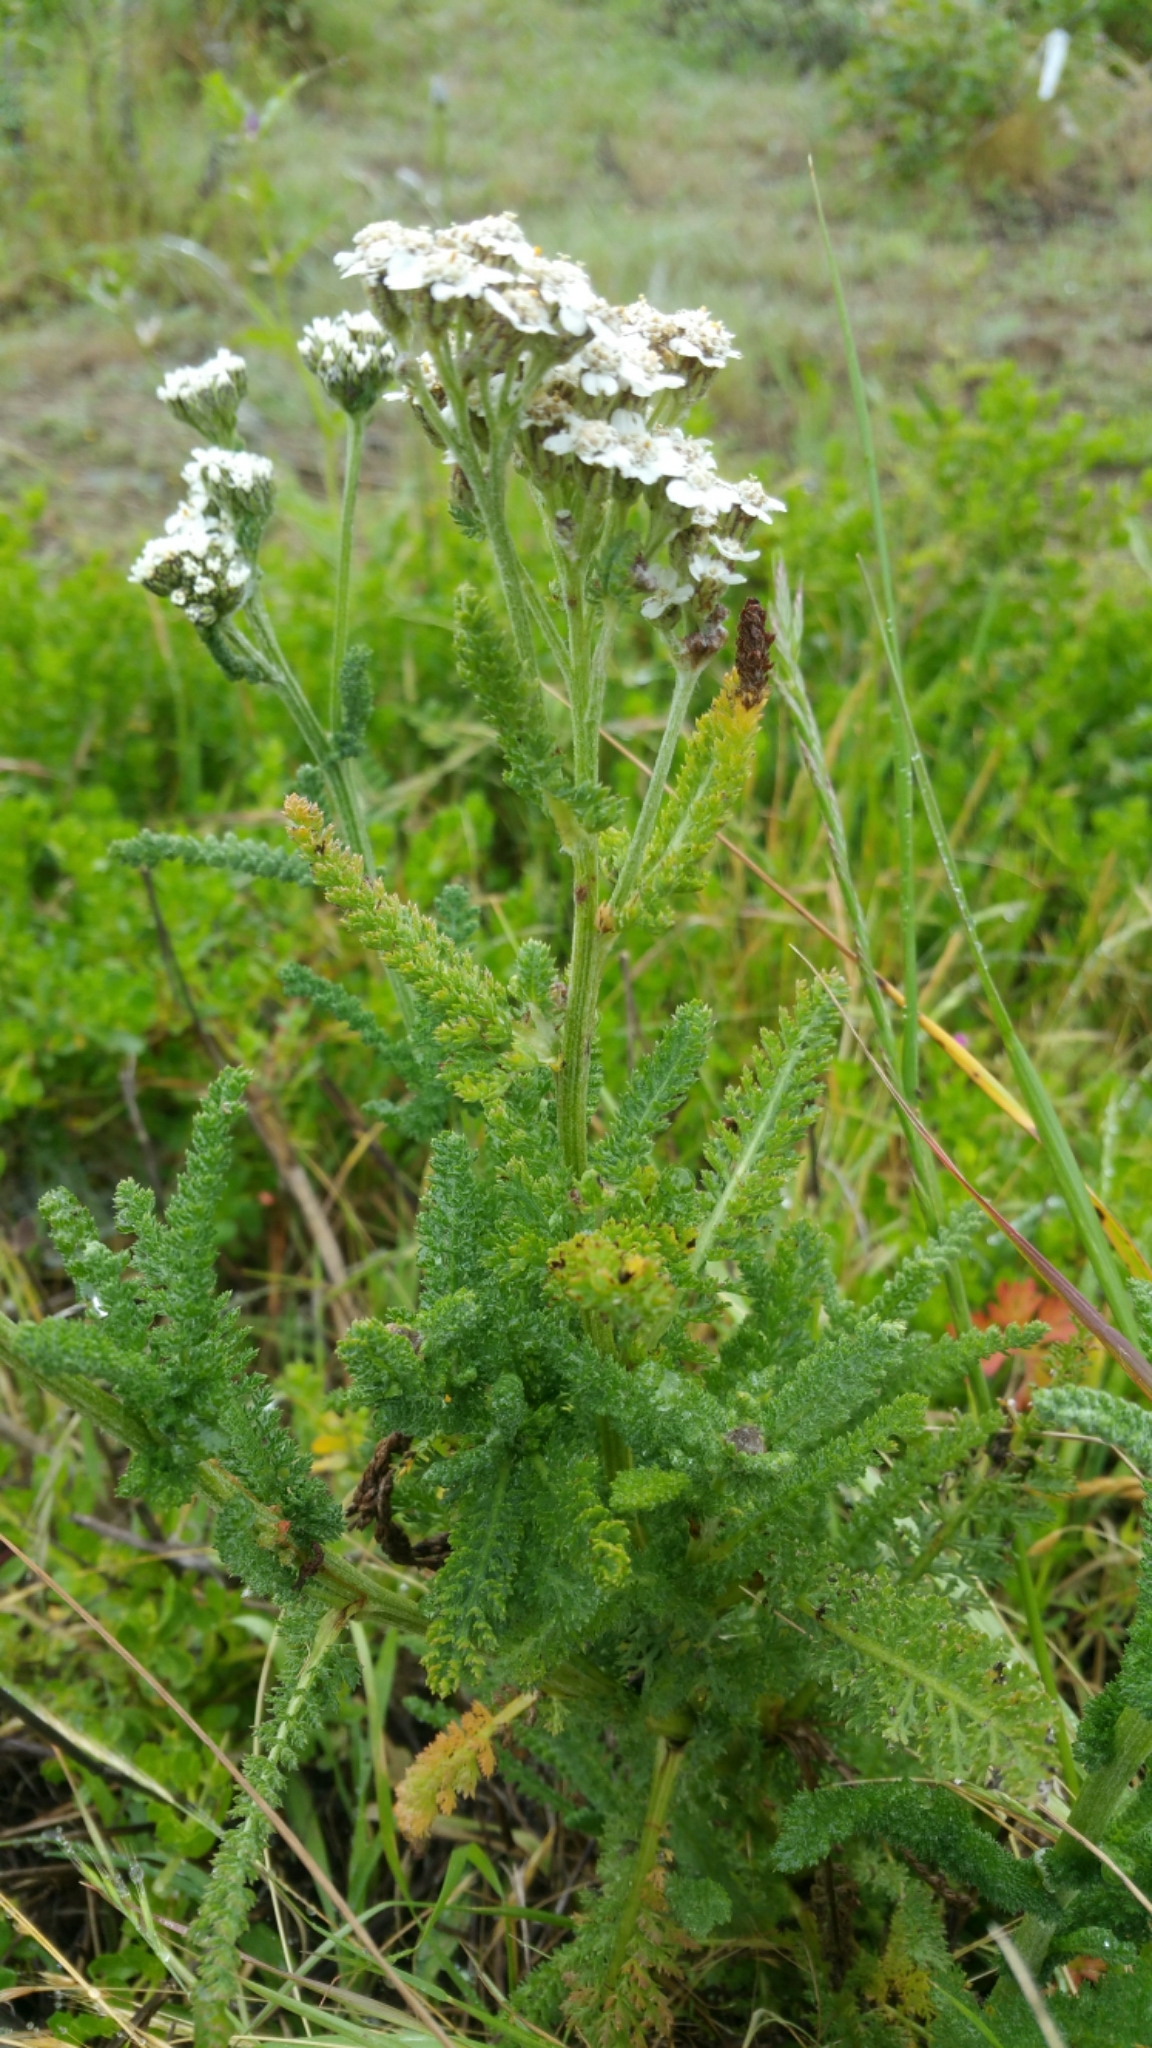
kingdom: Plantae
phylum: Tracheophyta
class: Magnoliopsida
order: Asterales
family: Asteraceae
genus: Achillea
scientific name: Achillea millefolium
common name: Yarrow
